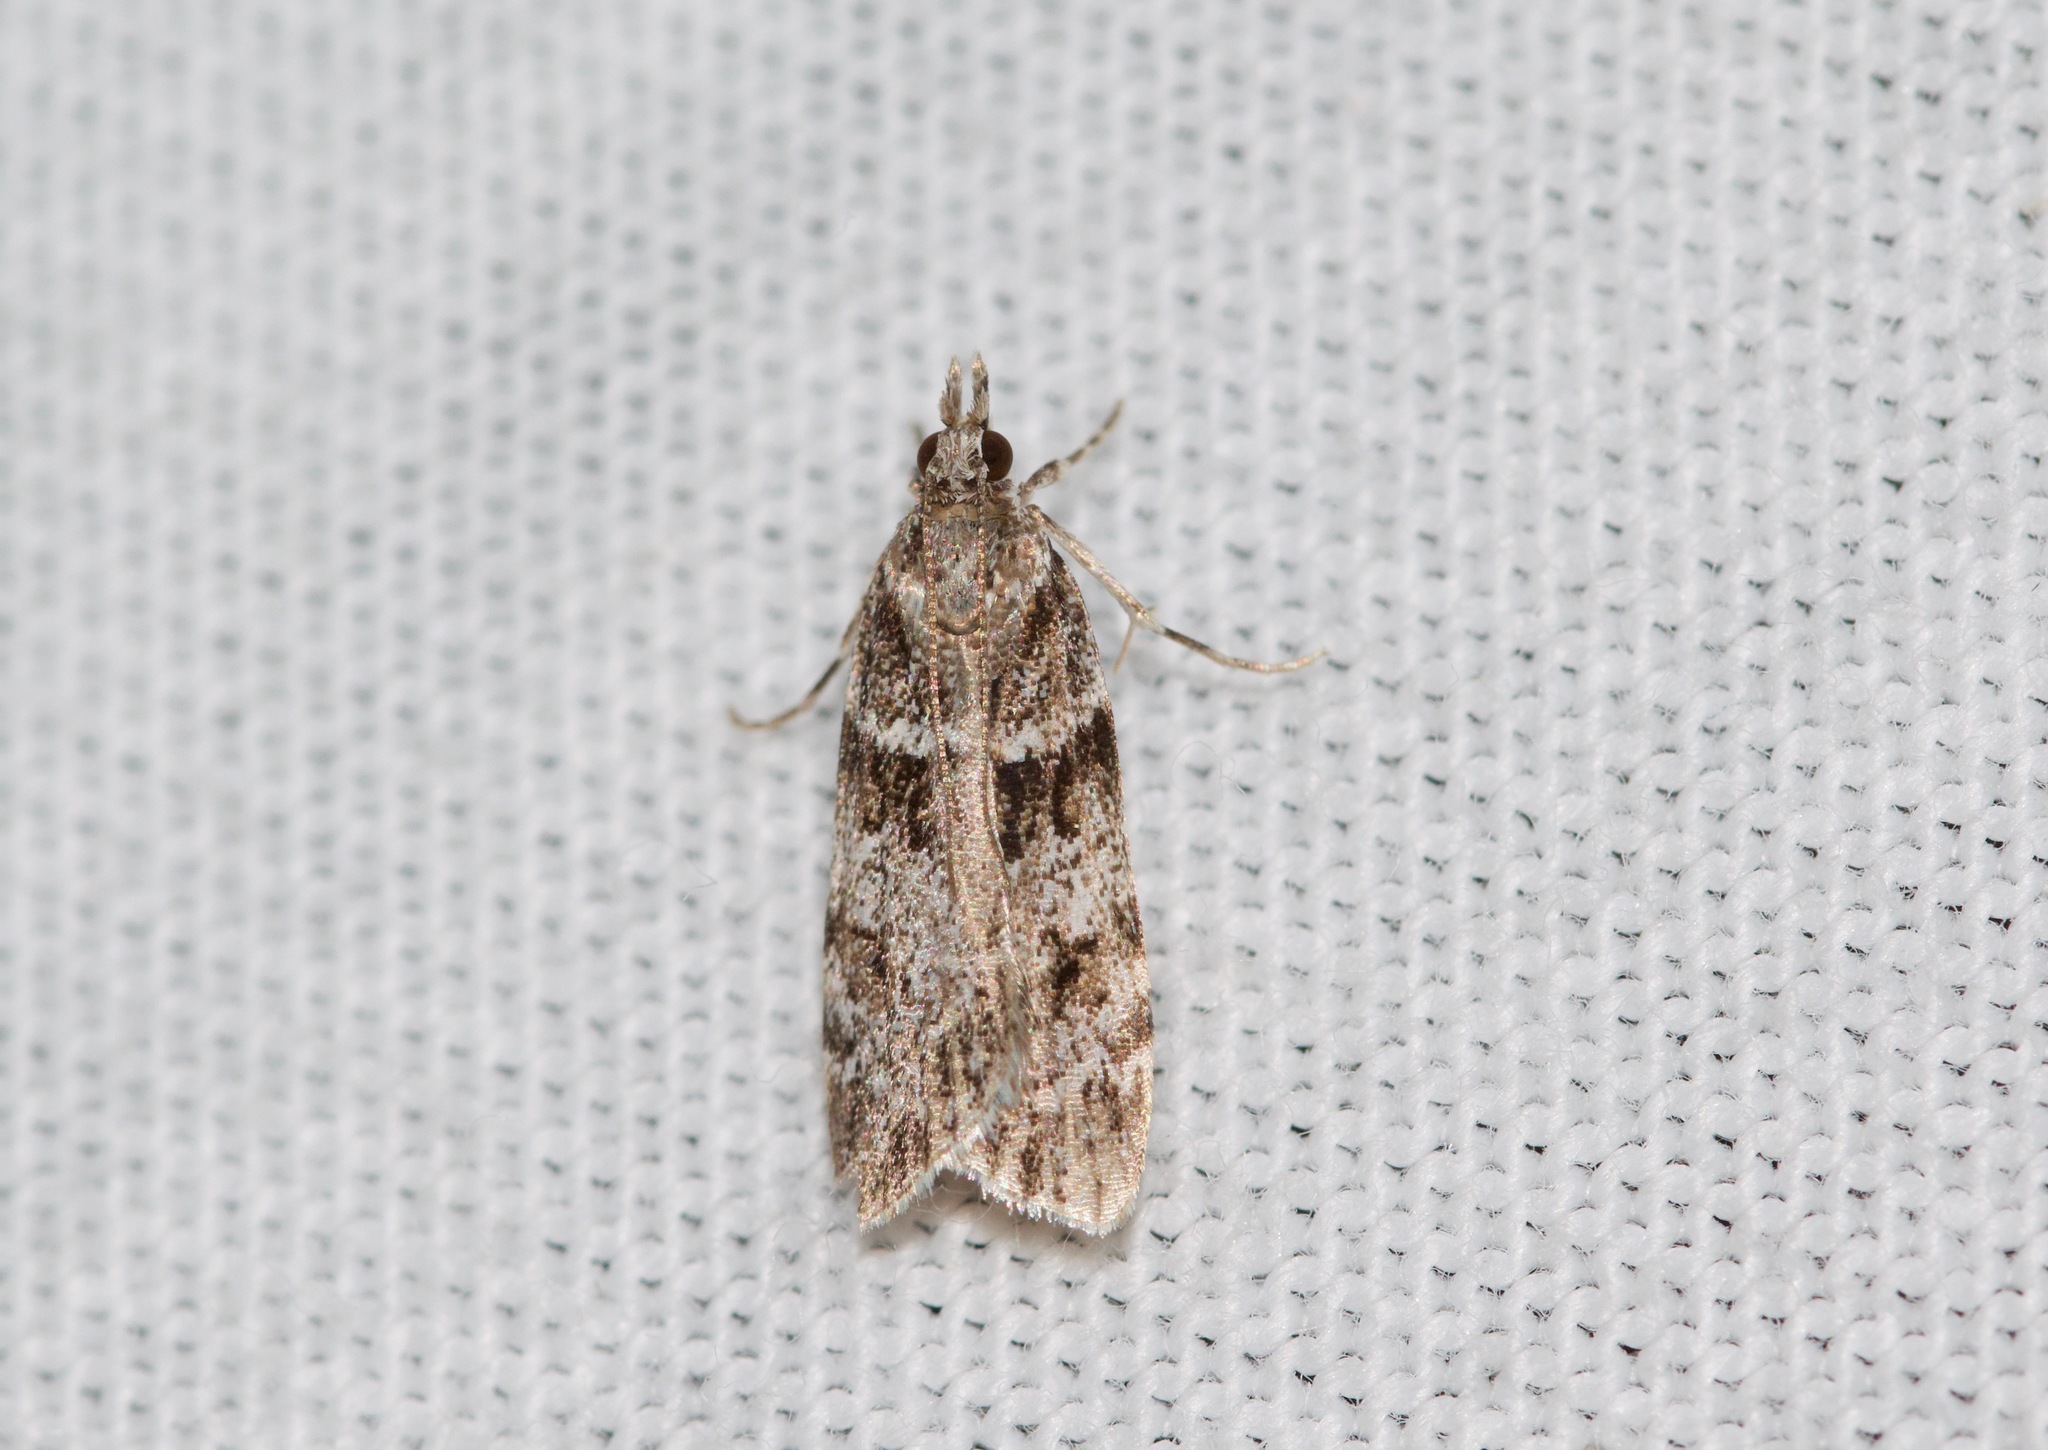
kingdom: Animalia
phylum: Arthropoda
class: Insecta
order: Lepidoptera
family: Crambidae
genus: Scoparia
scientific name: Scoparia biplagialis
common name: Double-striped scoparia moth
